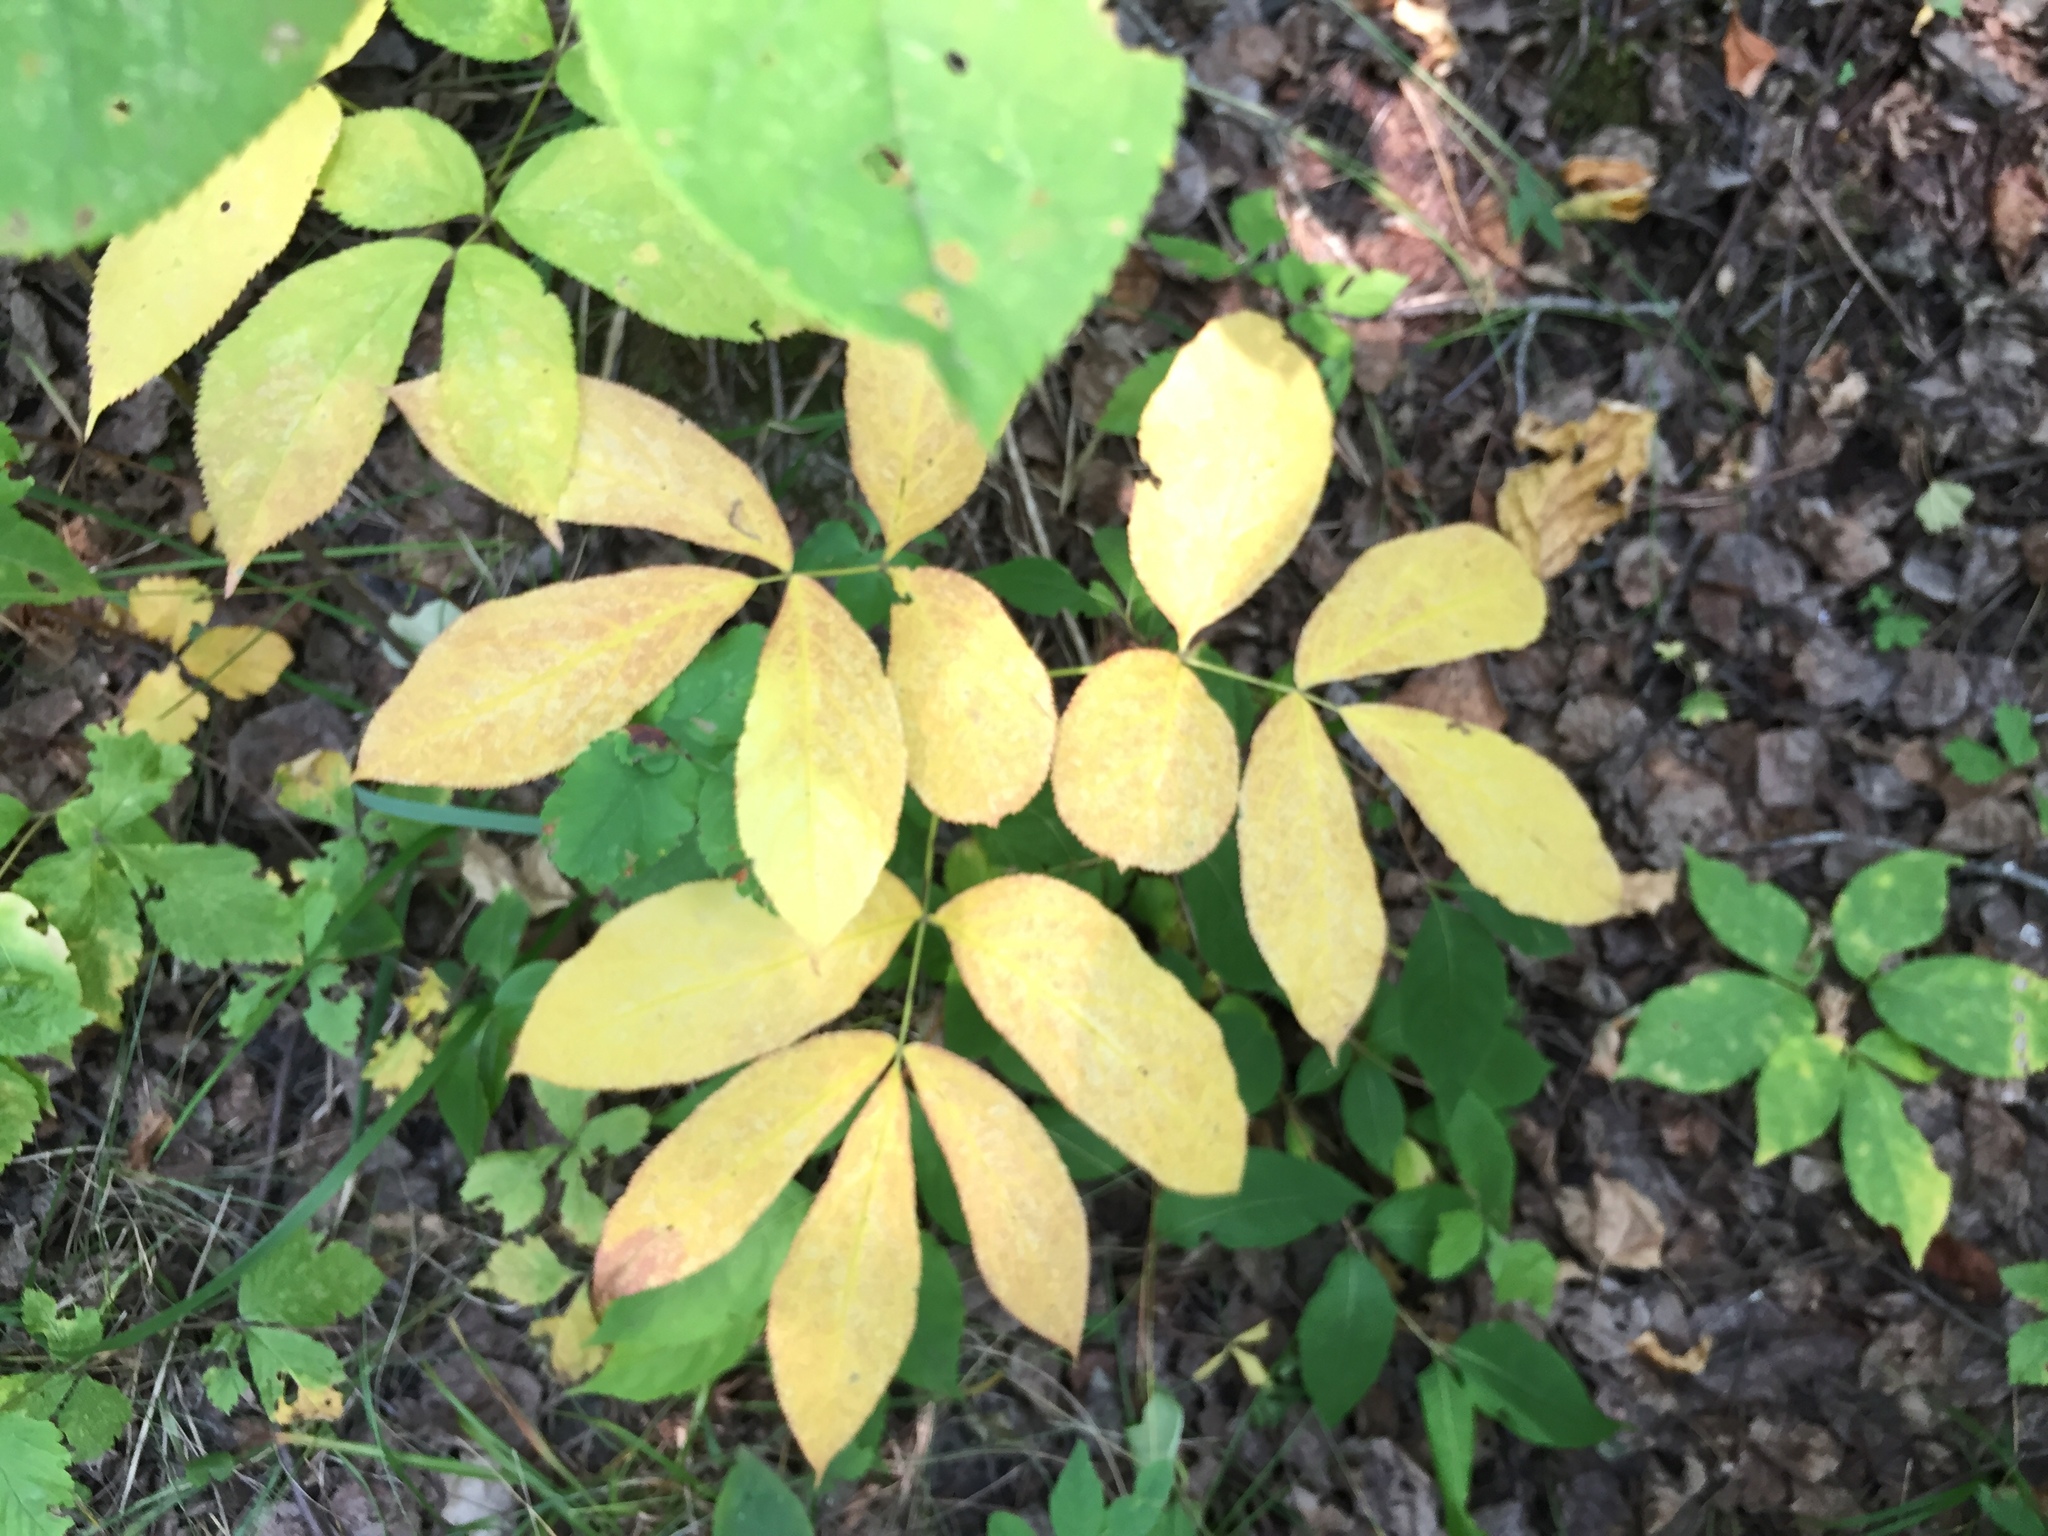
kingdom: Plantae
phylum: Tracheophyta
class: Magnoliopsida
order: Apiales
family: Araliaceae
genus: Aralia
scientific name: Aralia nudicaulis
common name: Wild sarsaparilla
